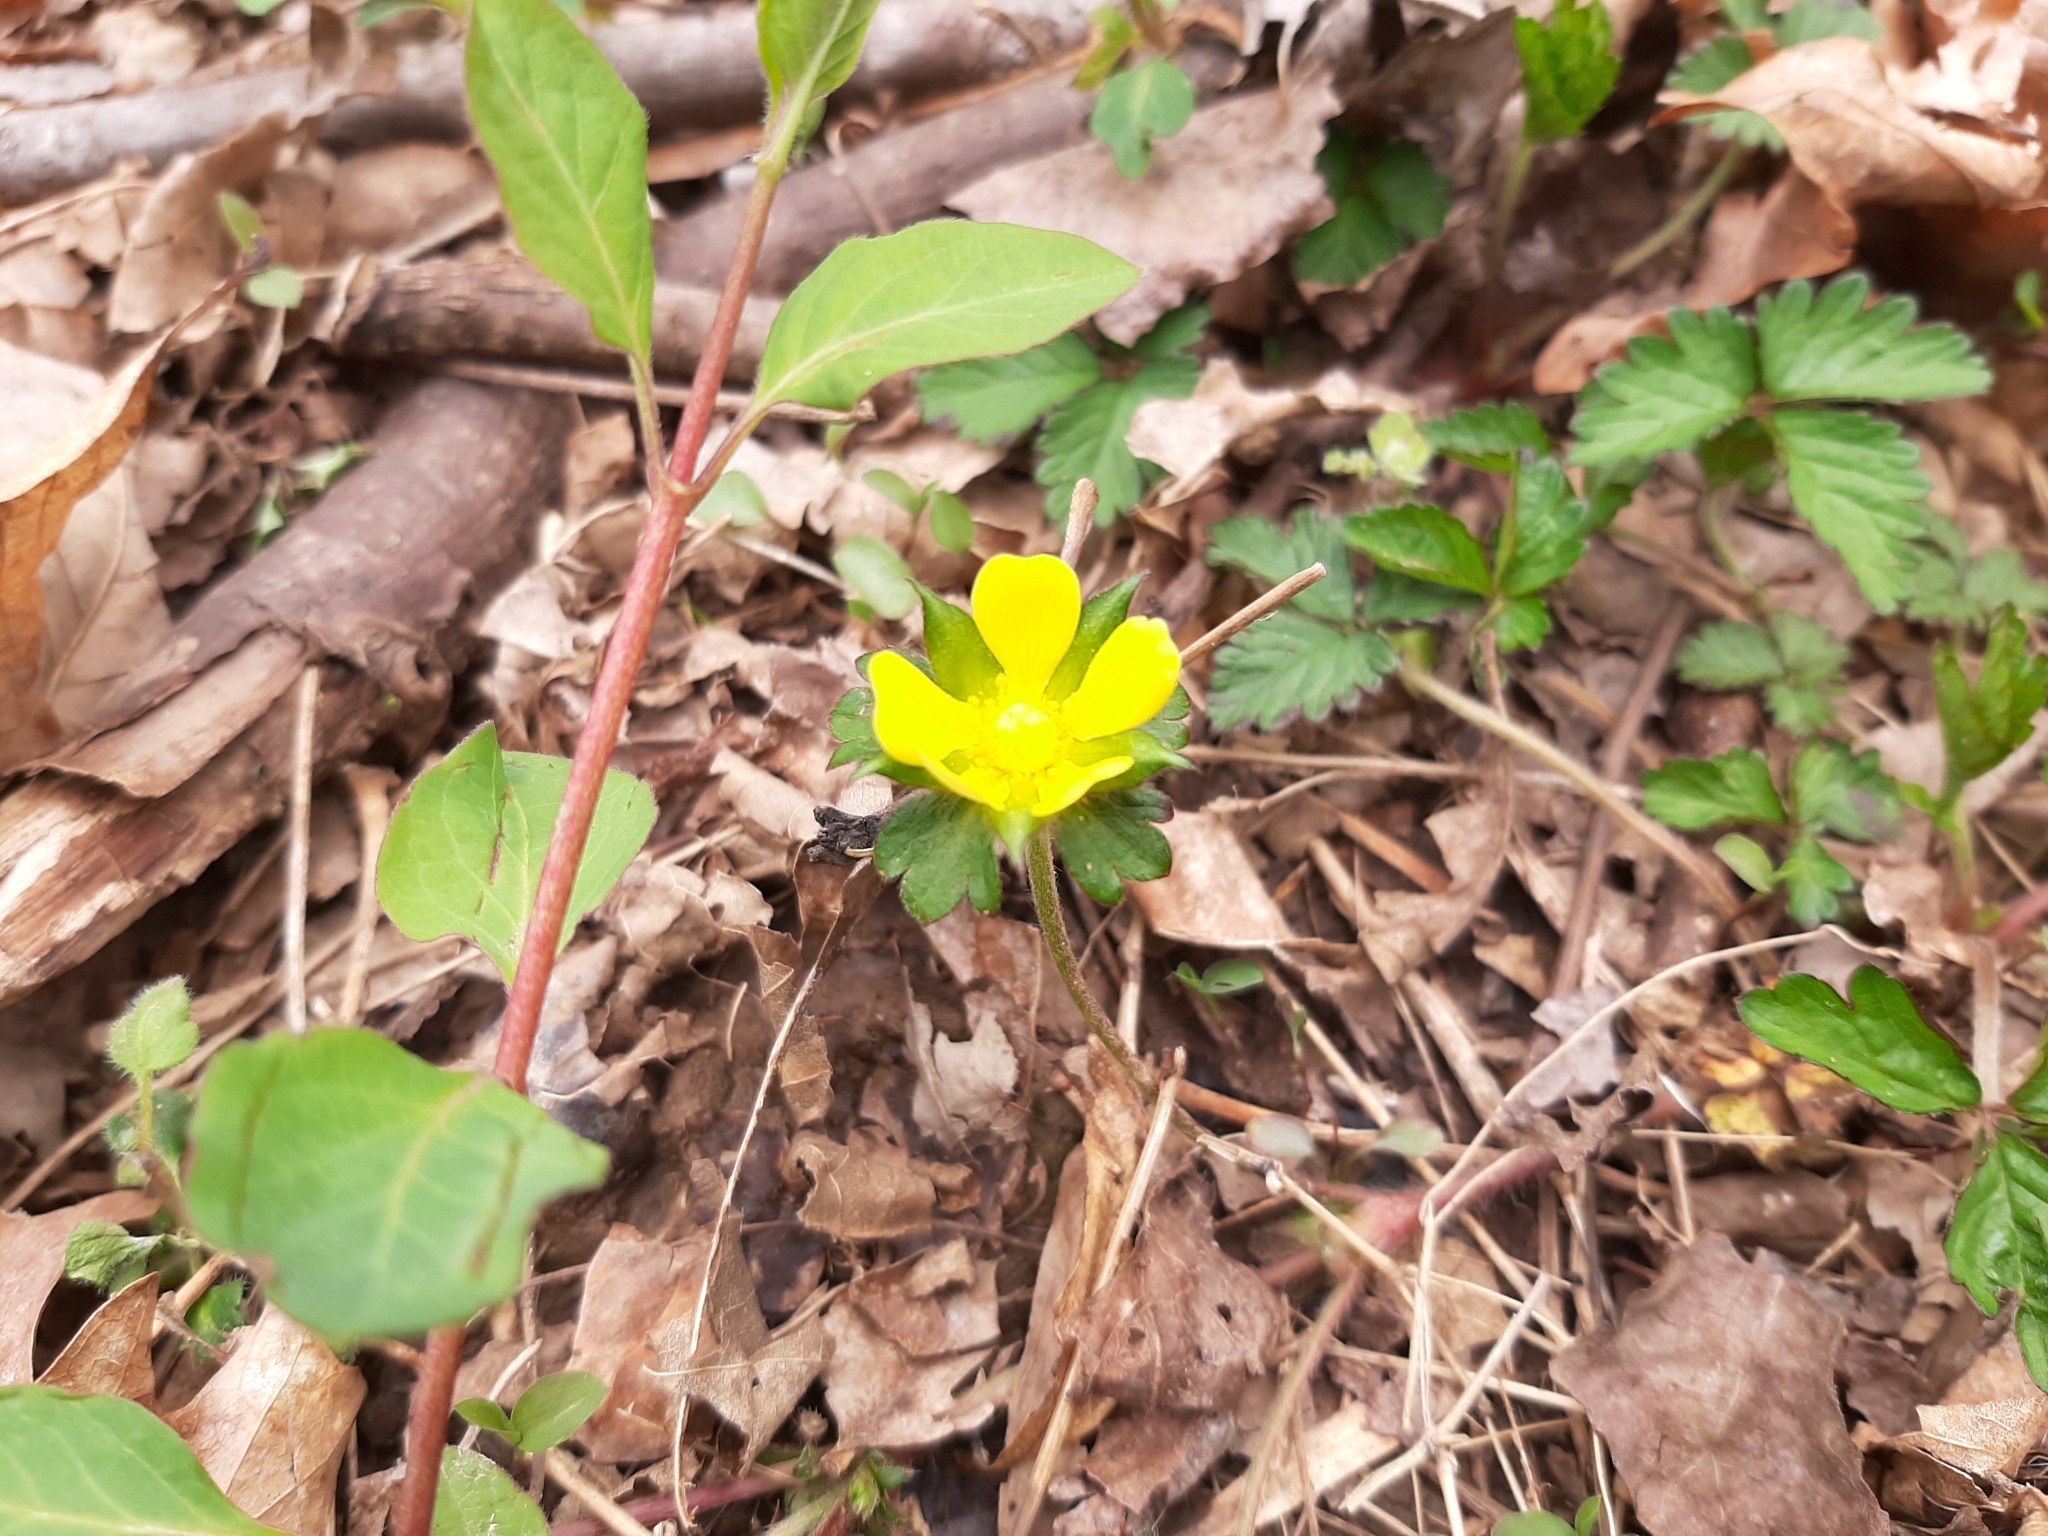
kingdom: Plantae
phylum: Tracheophyta
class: Magnoliopsida
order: Rosales
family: Rosaceae
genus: Potentilla
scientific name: Potentilla indica
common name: Yellow-flowered strawberry
